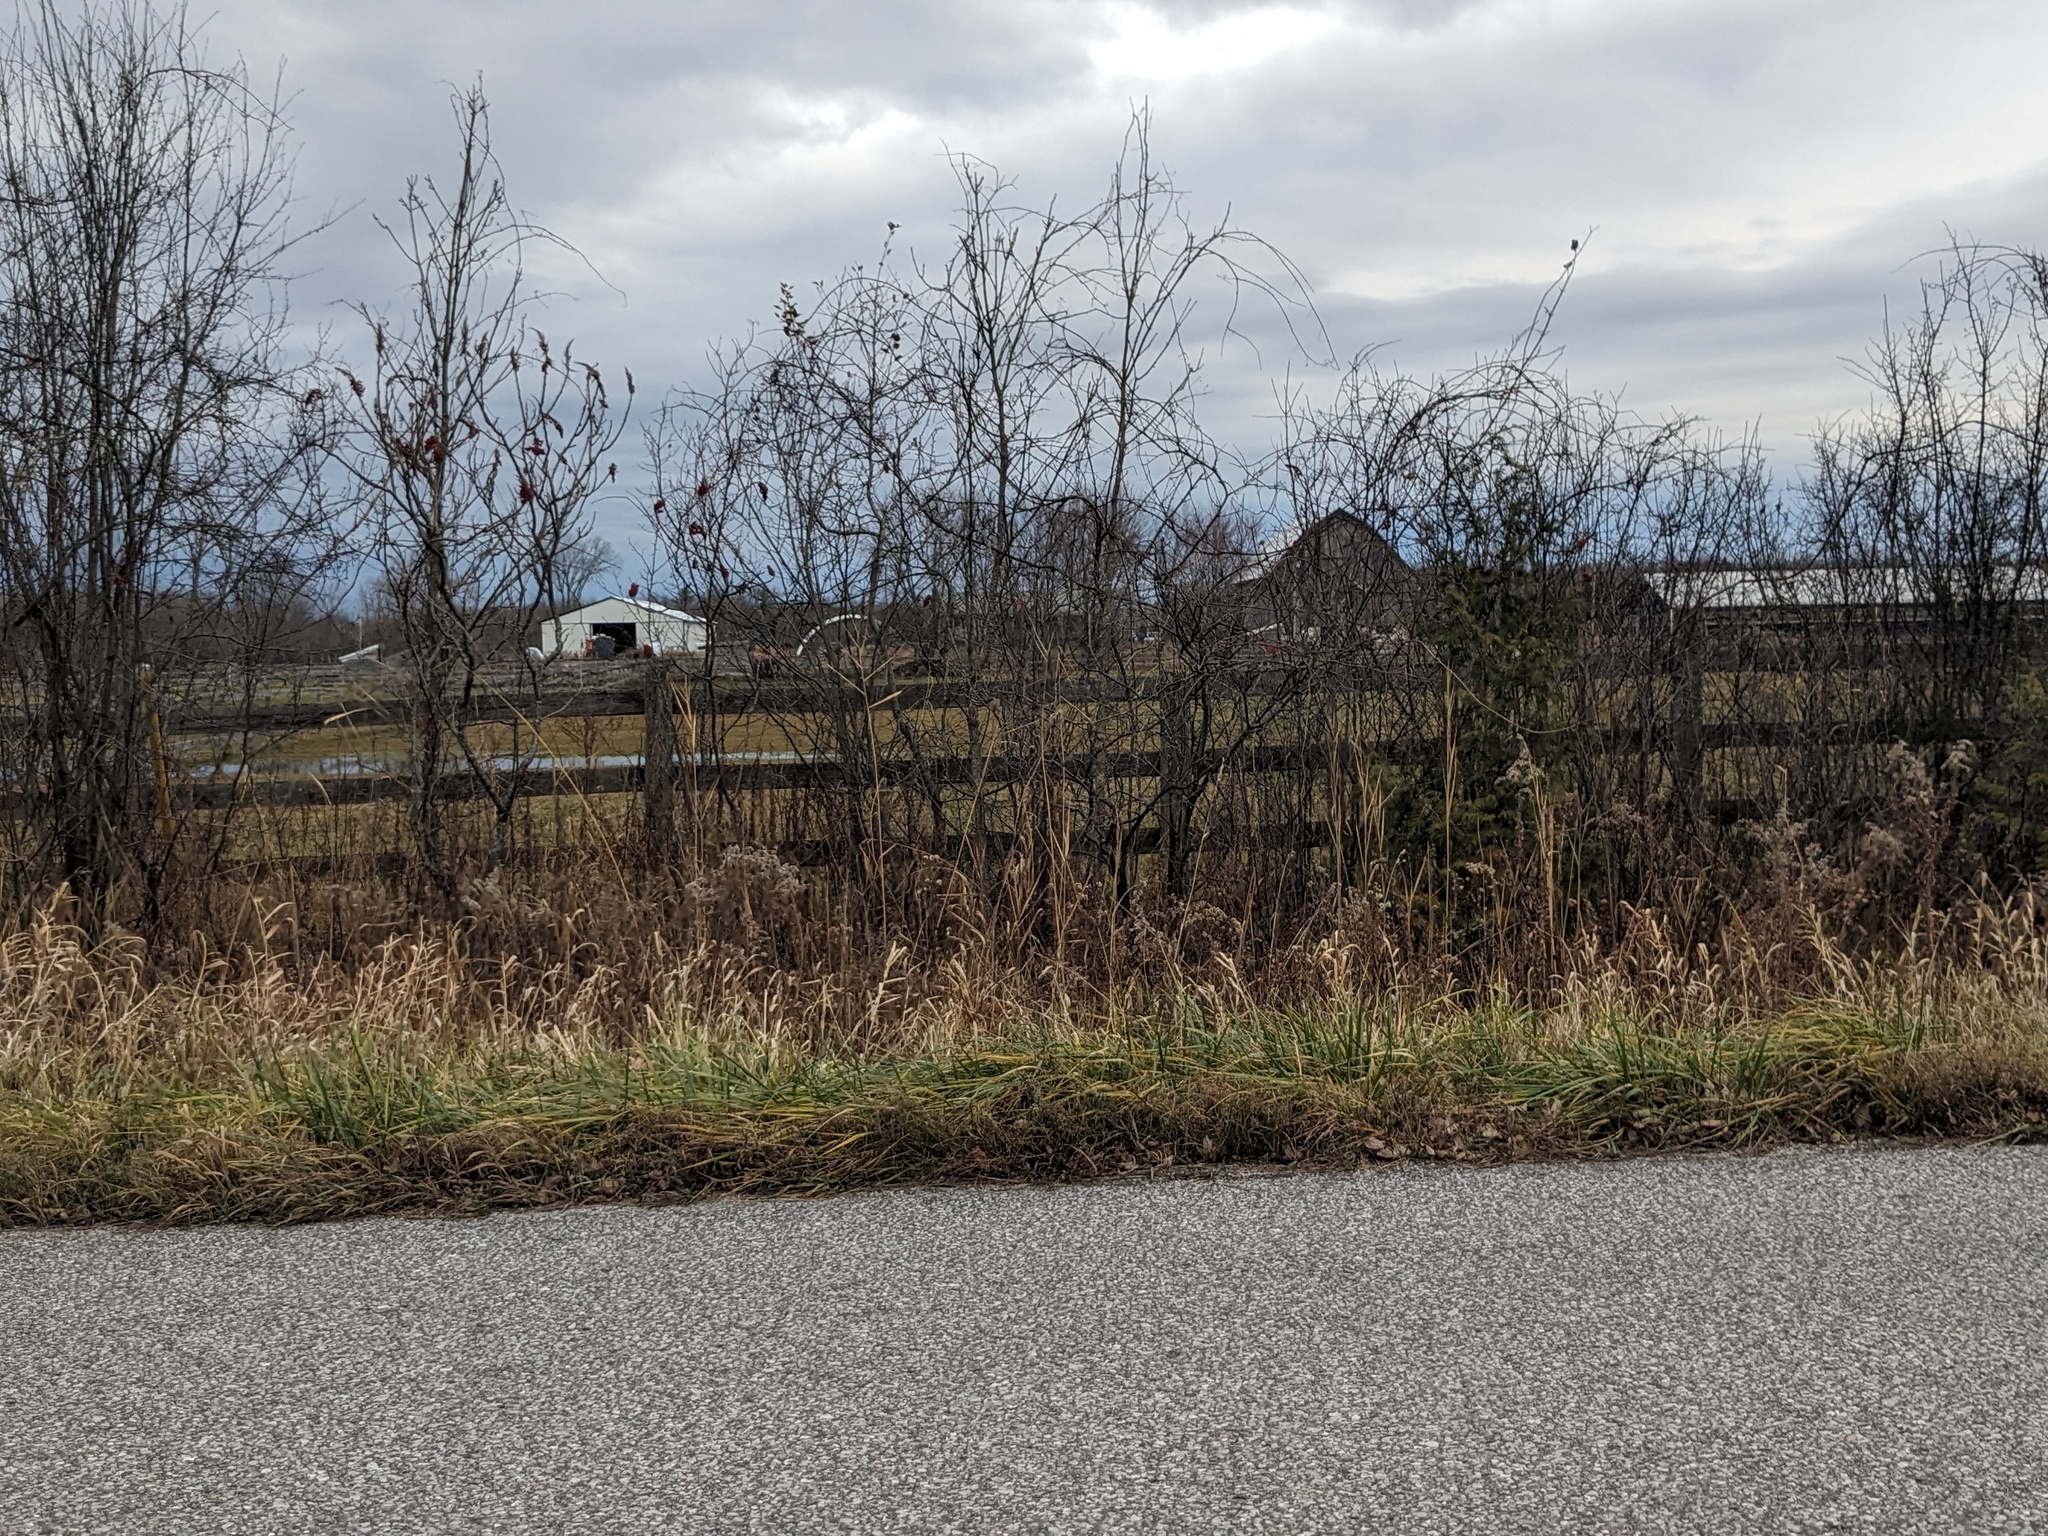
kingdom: Plantae
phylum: Tracheophyta
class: Liliopsida
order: Poales
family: Poaceae
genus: Phragmites
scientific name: Phragmites australis
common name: Common reed
